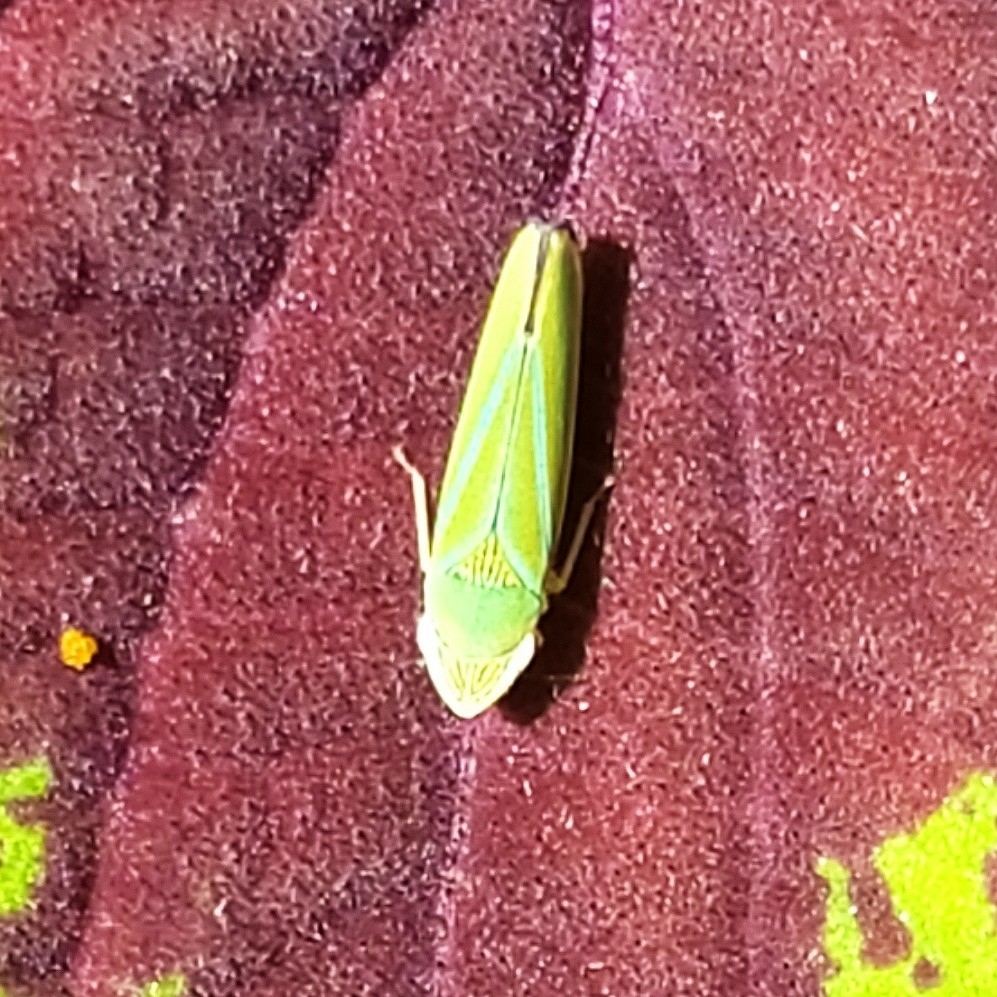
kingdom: Animalia
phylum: Arthropoda
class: Insecta
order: Hemiptera
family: Cicadellidae
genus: Graphocephala
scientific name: Graphocephala
